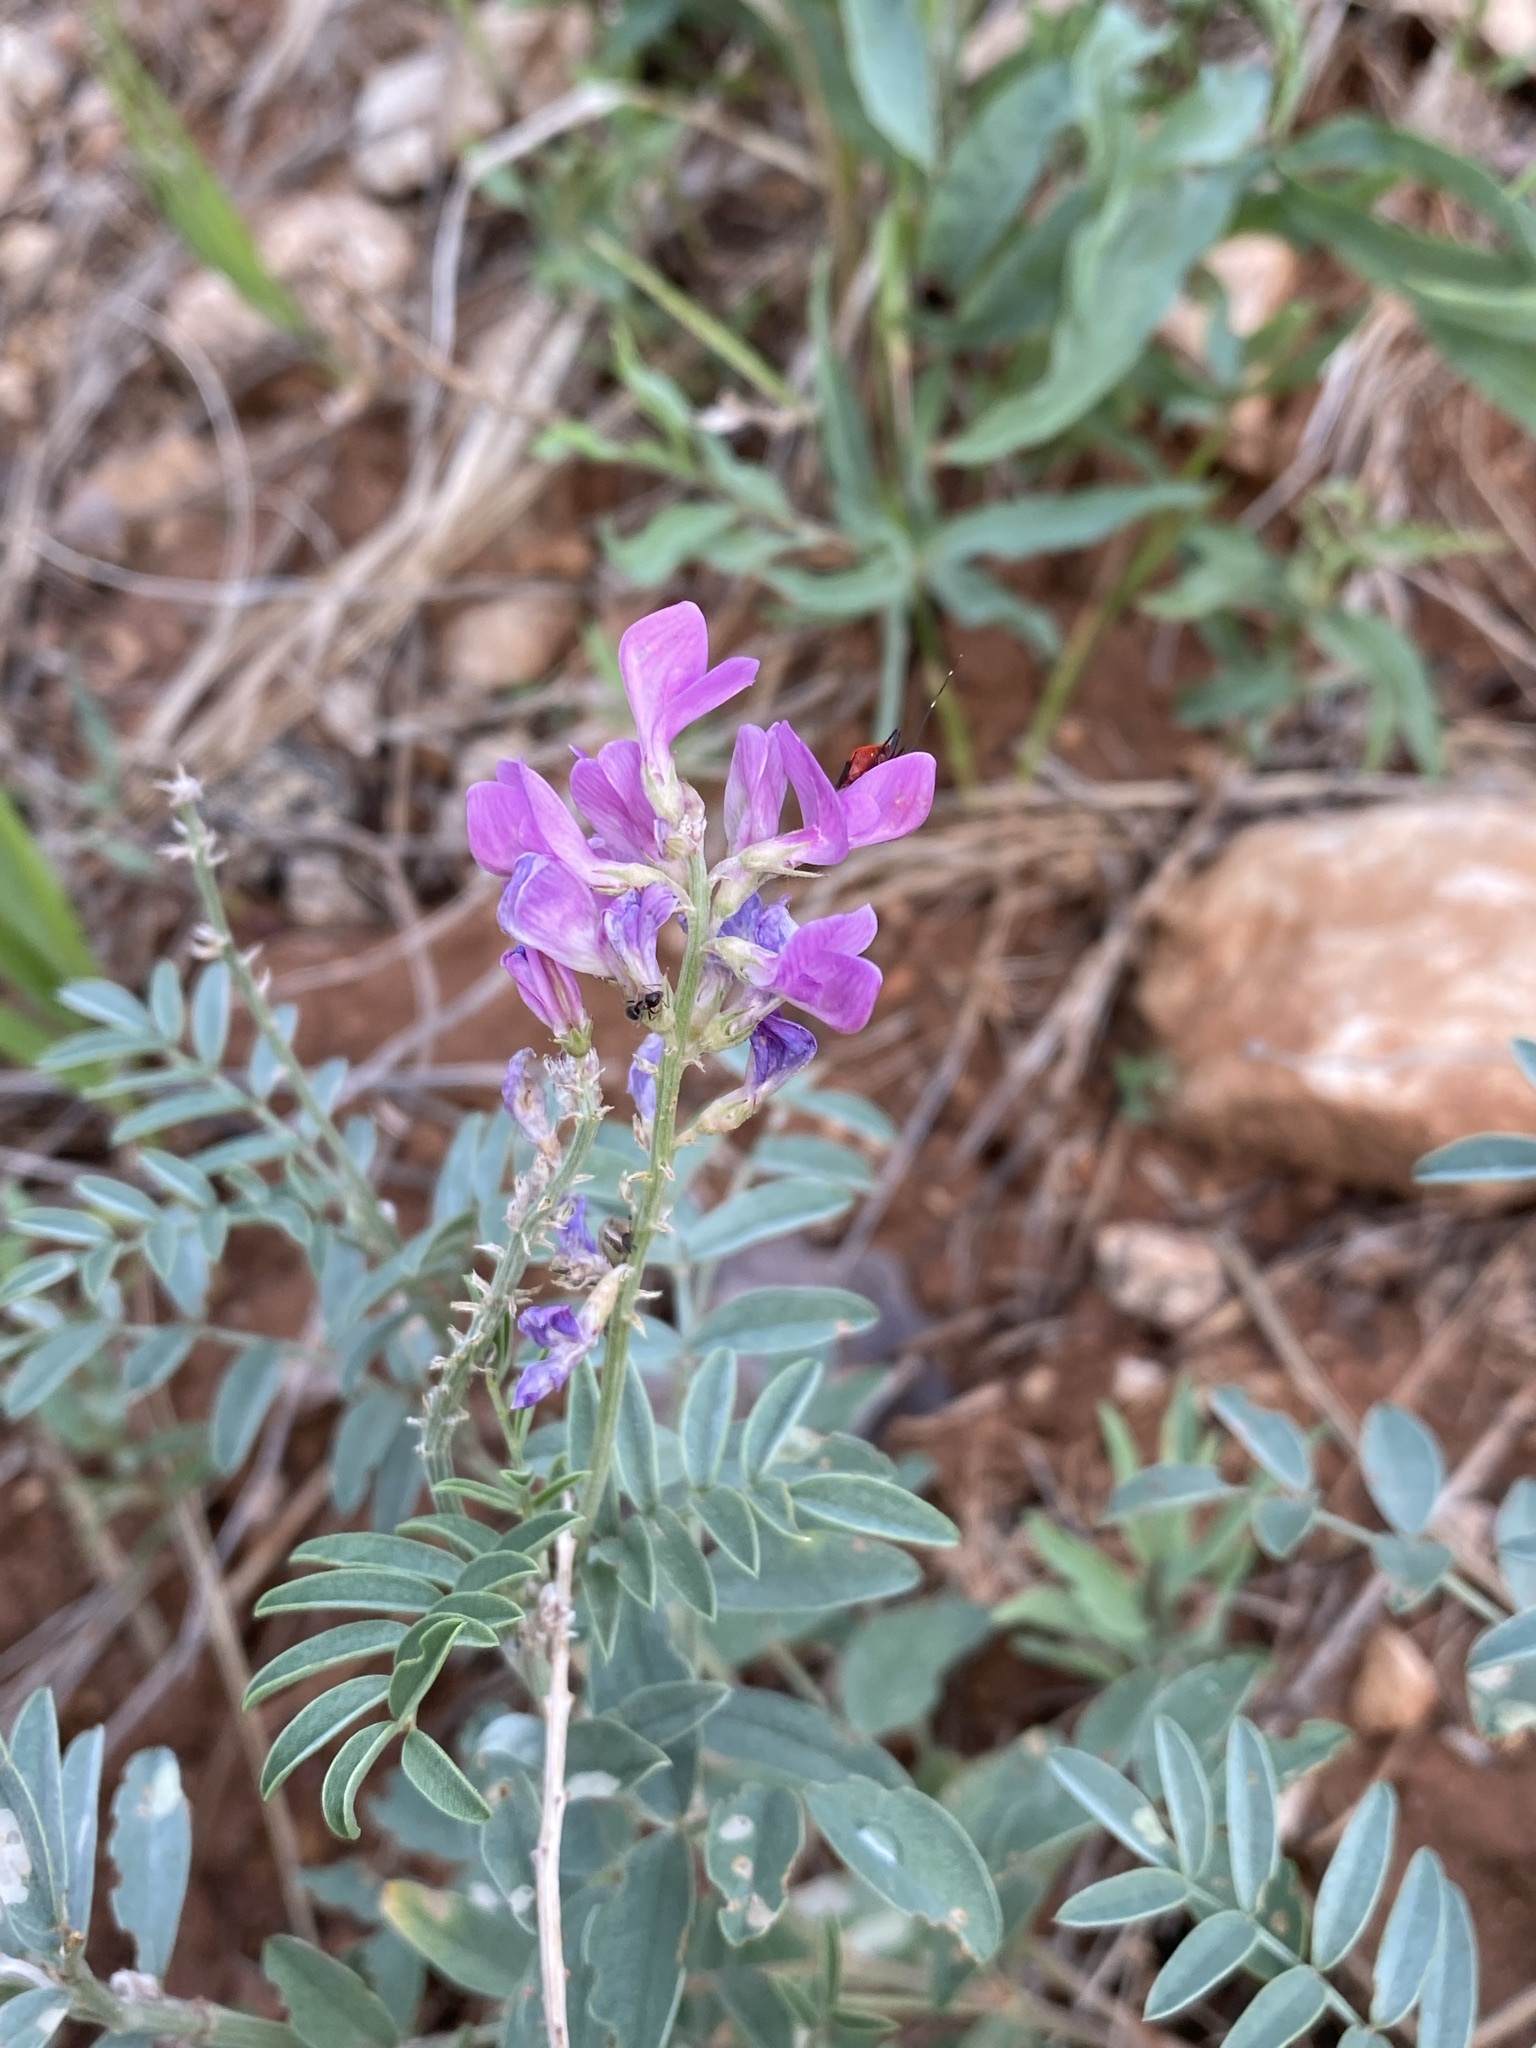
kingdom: Plantae
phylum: Tracheophyta
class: Magnoliopsida
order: Fabales
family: Fabaceae
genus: Hedysarum
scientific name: Hedysarum boreale
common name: Northern sweet-vetch
